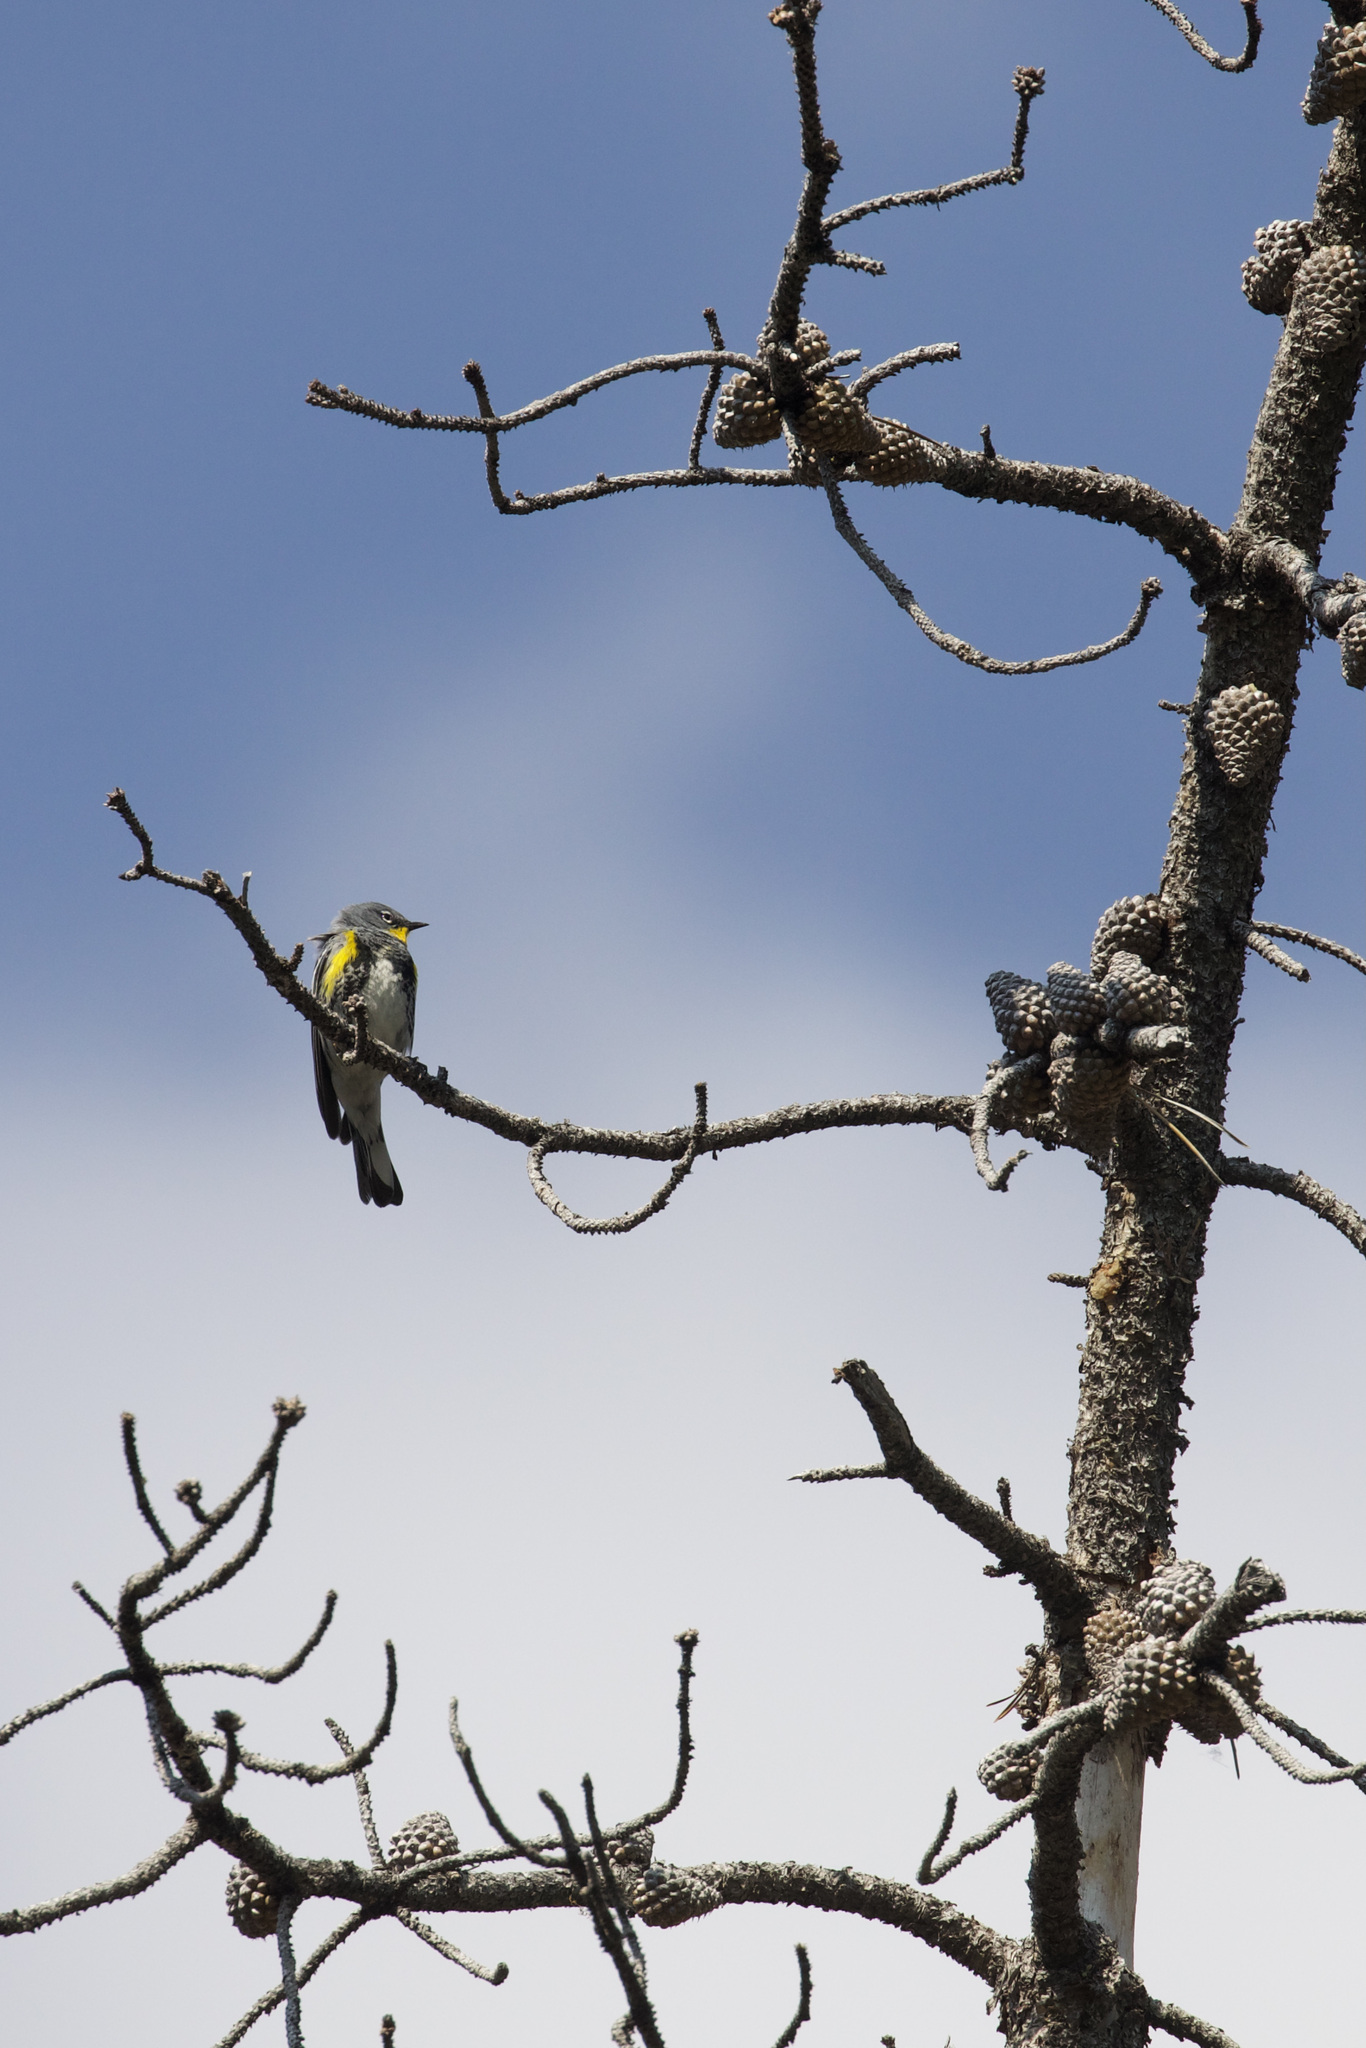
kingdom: Animalia
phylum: Chordata
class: Aves
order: Passeriformes
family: Parulidae
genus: Setophaga
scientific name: Setophaga coronata
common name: Myrtle warbler
